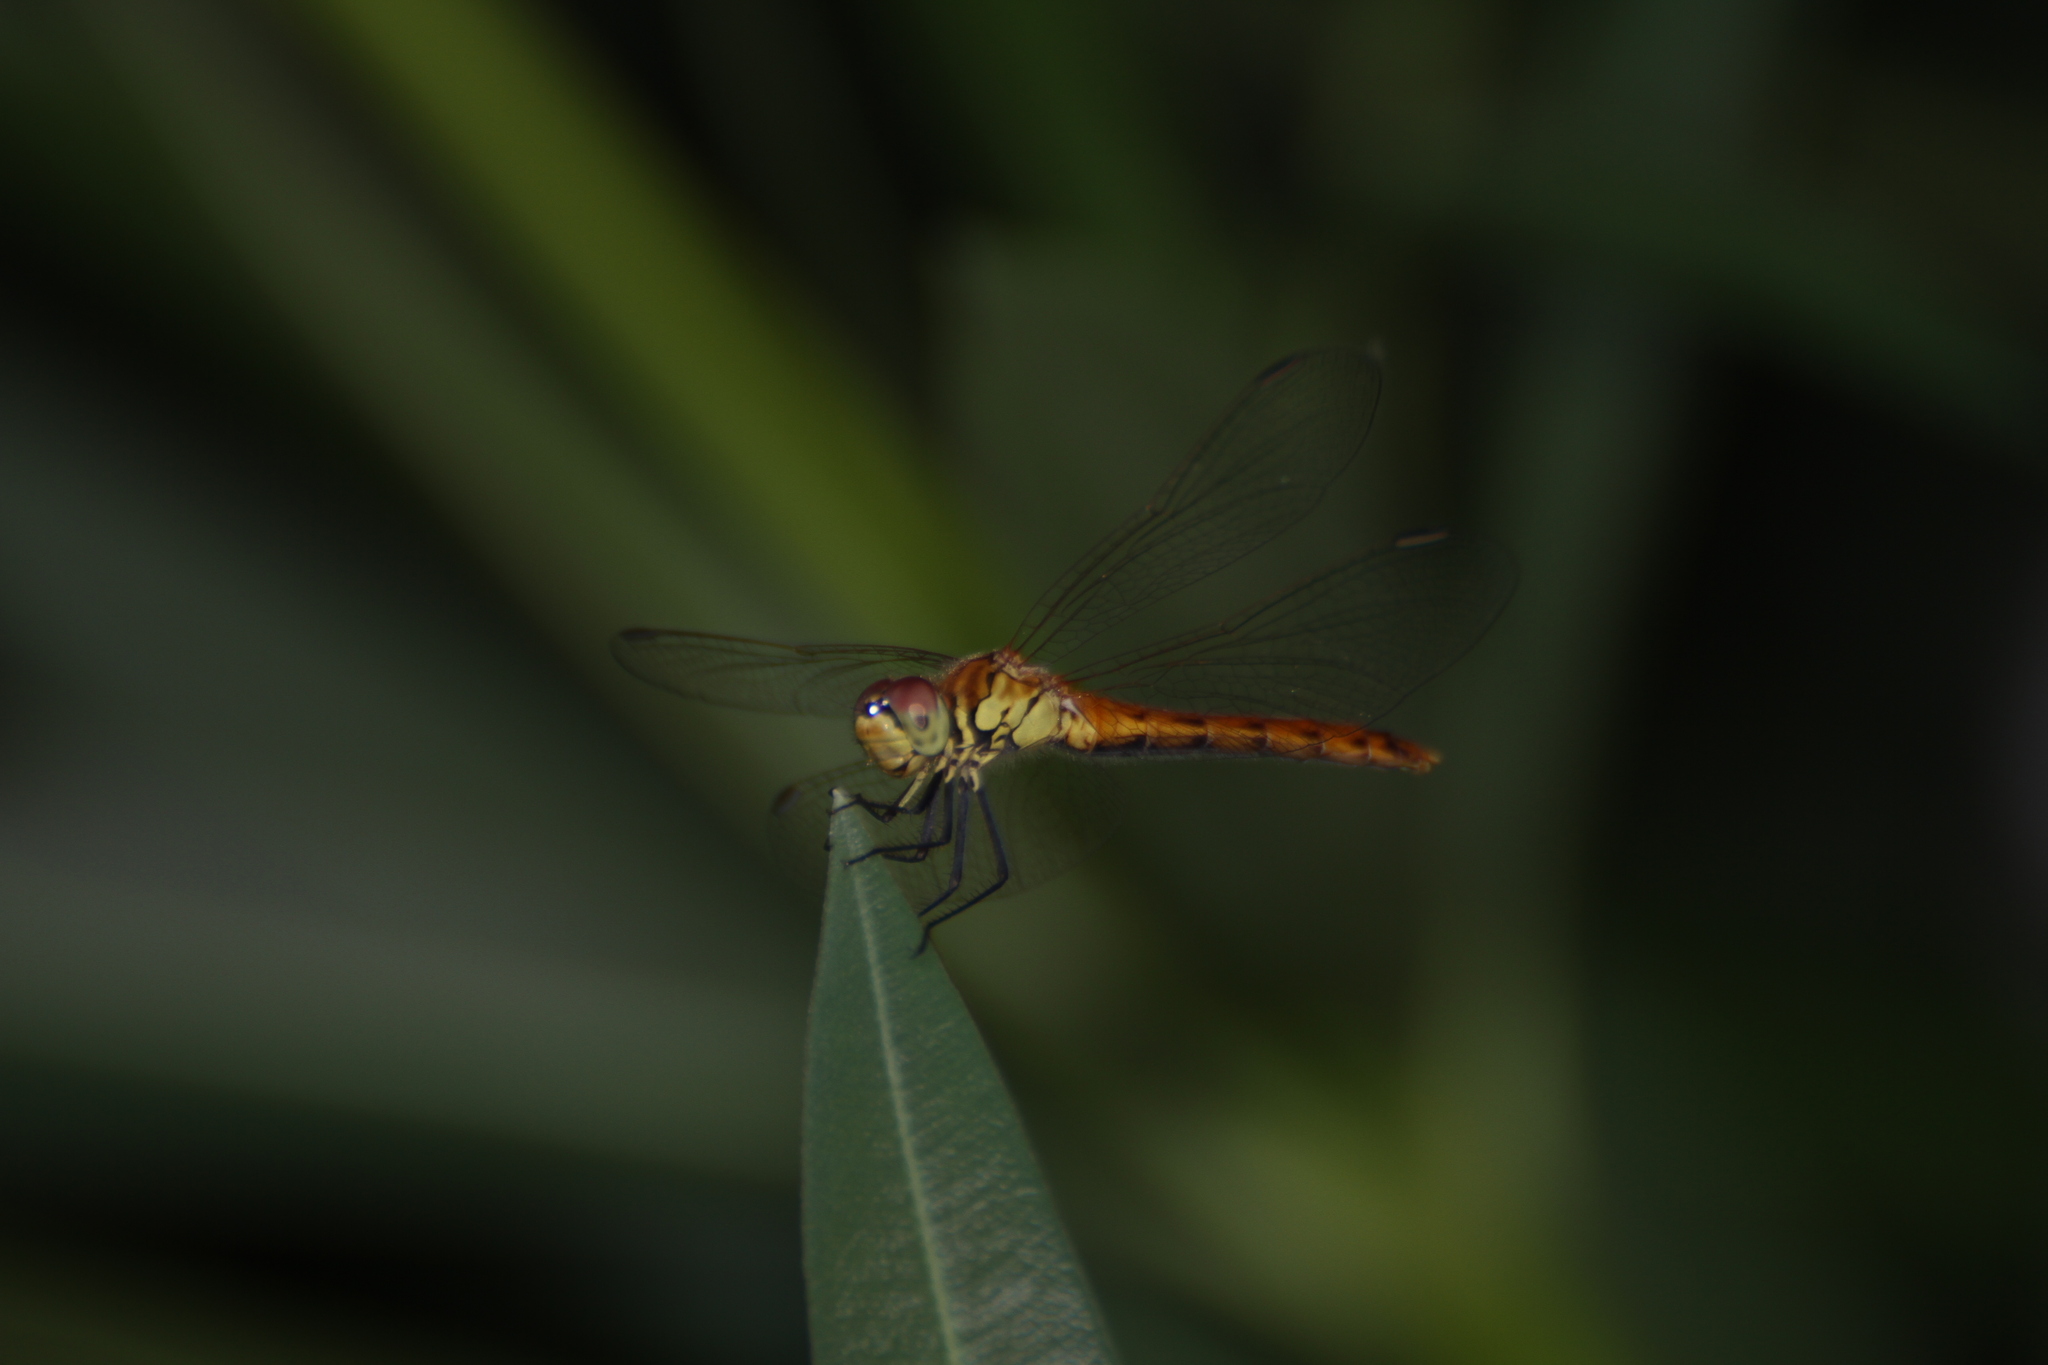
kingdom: Animalia
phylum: Arthropoda
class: Insecta
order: Odonata
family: Libellulidae
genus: Sympetrum
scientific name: Sympetrum depressiusculum
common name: Spotted darter
